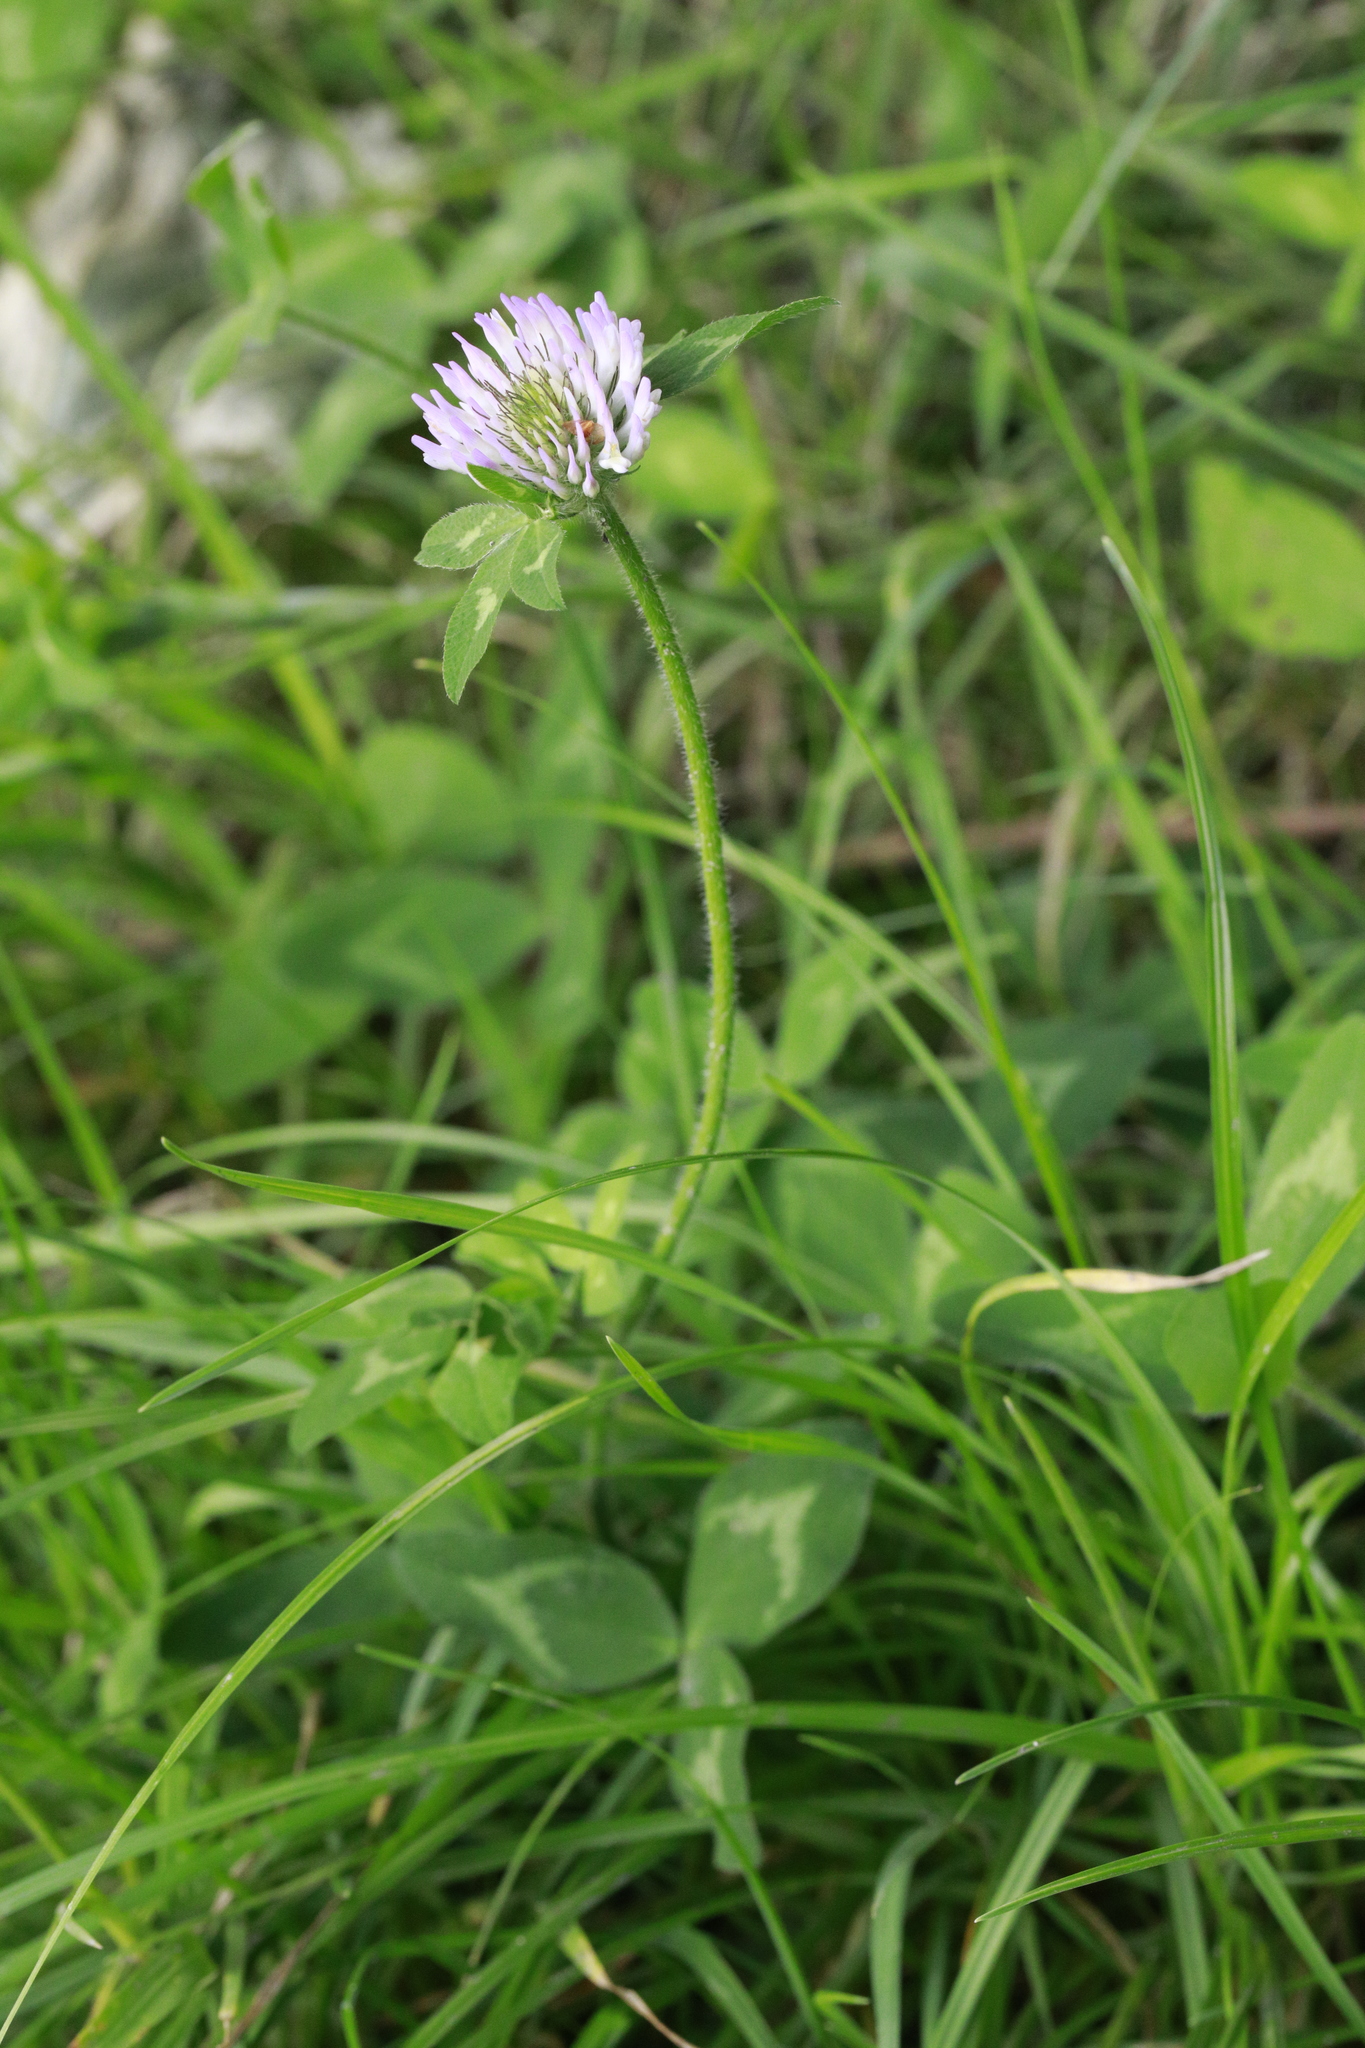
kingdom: Plantae
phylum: Tracheophyta
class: Magnoliopsida
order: Fabales
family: Fabaceae
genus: Trifolium
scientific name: Trifolium pratense
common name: Red clover
